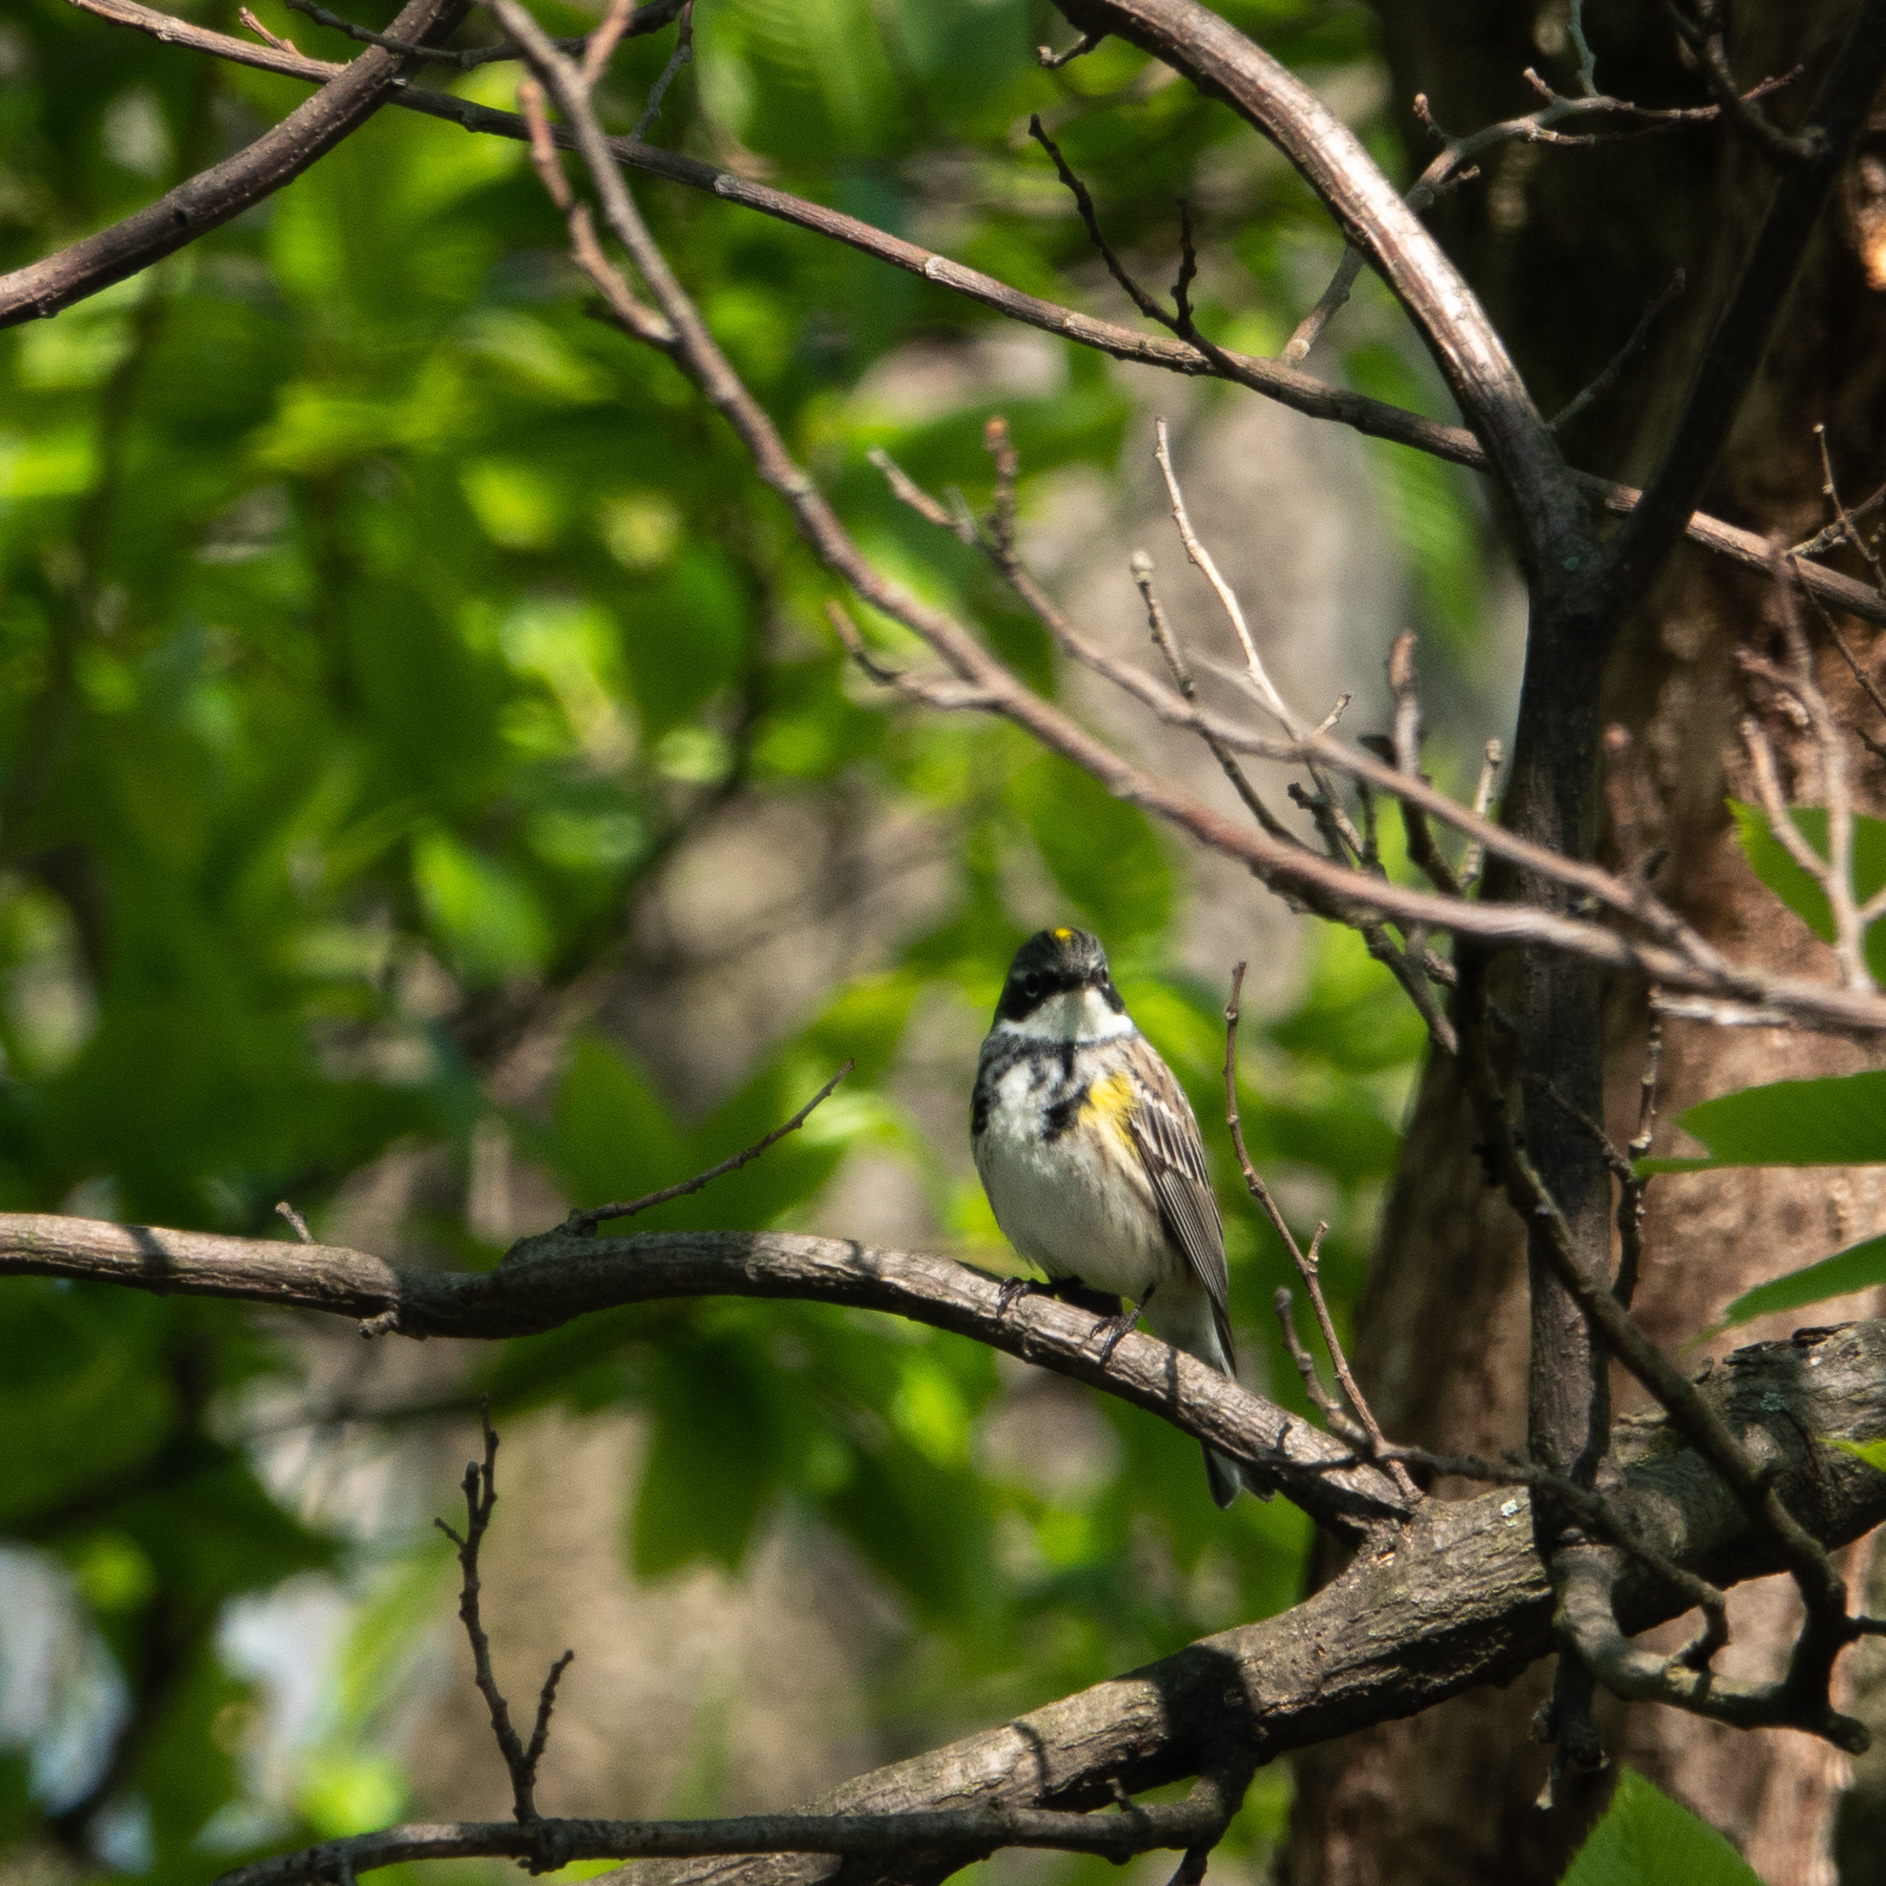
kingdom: Animalia
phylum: Chordata
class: Aves
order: Passeriformes
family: Parulidae
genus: Setophaga
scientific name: Setophaga coronata
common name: Myrtle warbler
